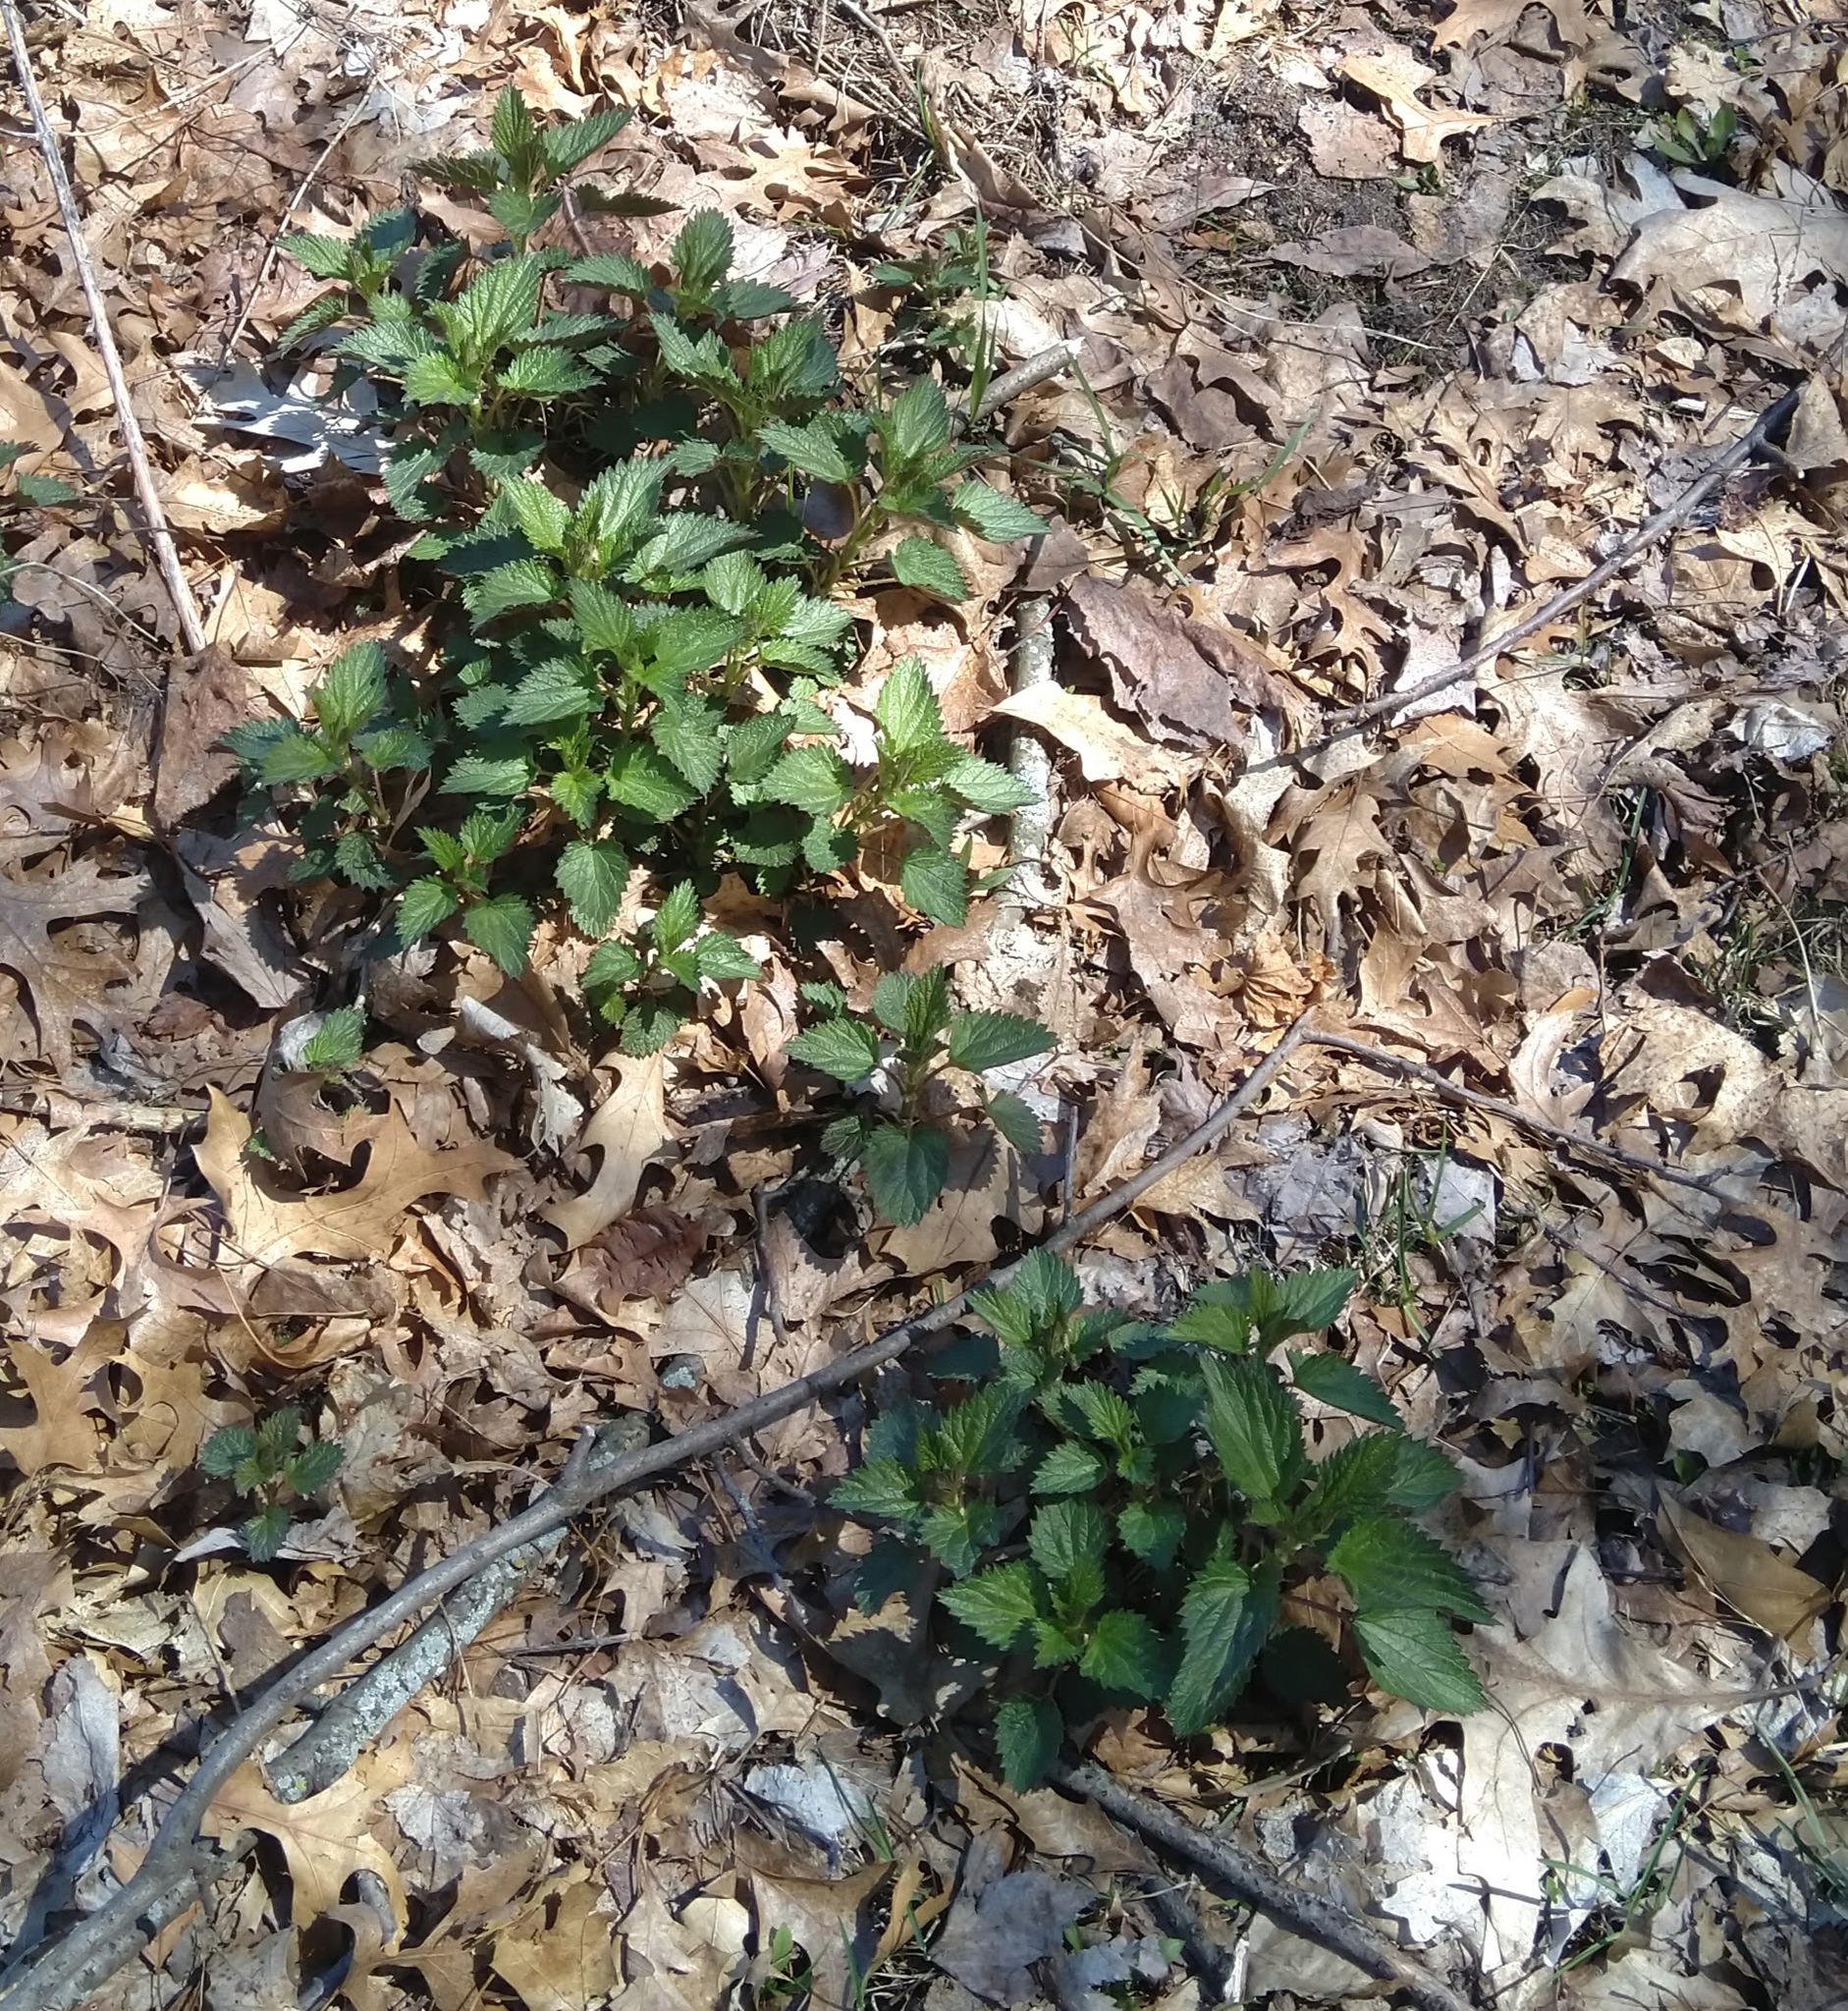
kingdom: Plantae
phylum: Tracheophyta
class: Magnoliopsida
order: Rosales
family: Urticaceae
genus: Urtica
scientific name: Urtica dioica
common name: Common nettle
